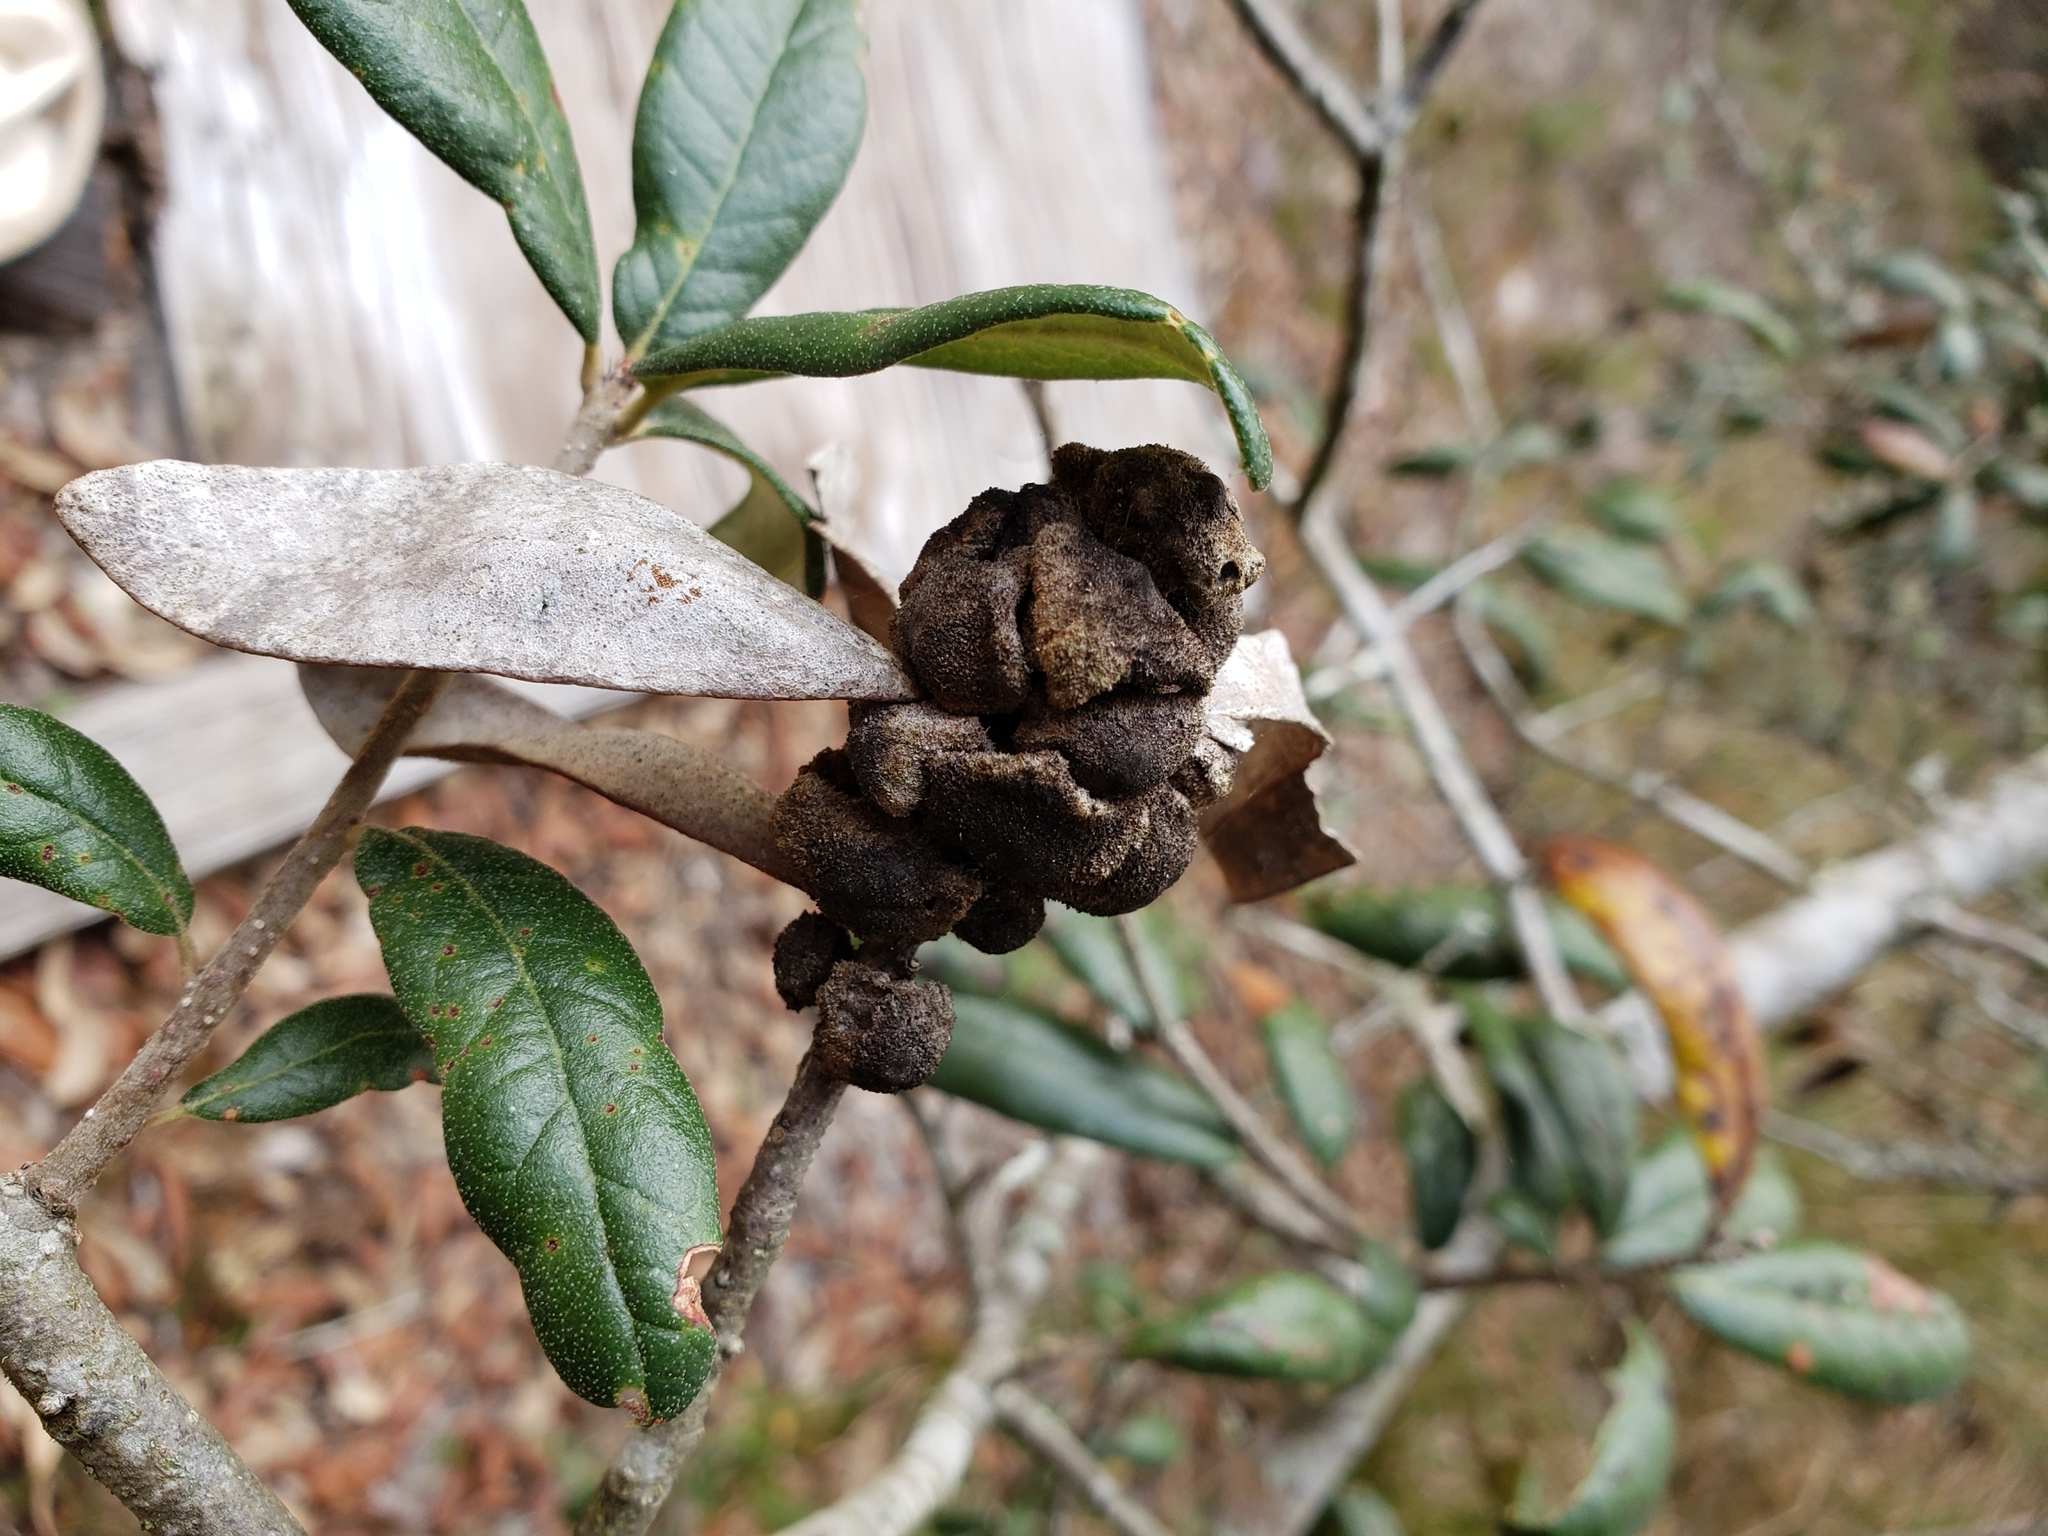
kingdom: Plantae
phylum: Tracheophyta
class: Magnoliopsida
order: Fagales
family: Fagaceae
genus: Quercus
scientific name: Quercus geminata
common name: Sand live oak
